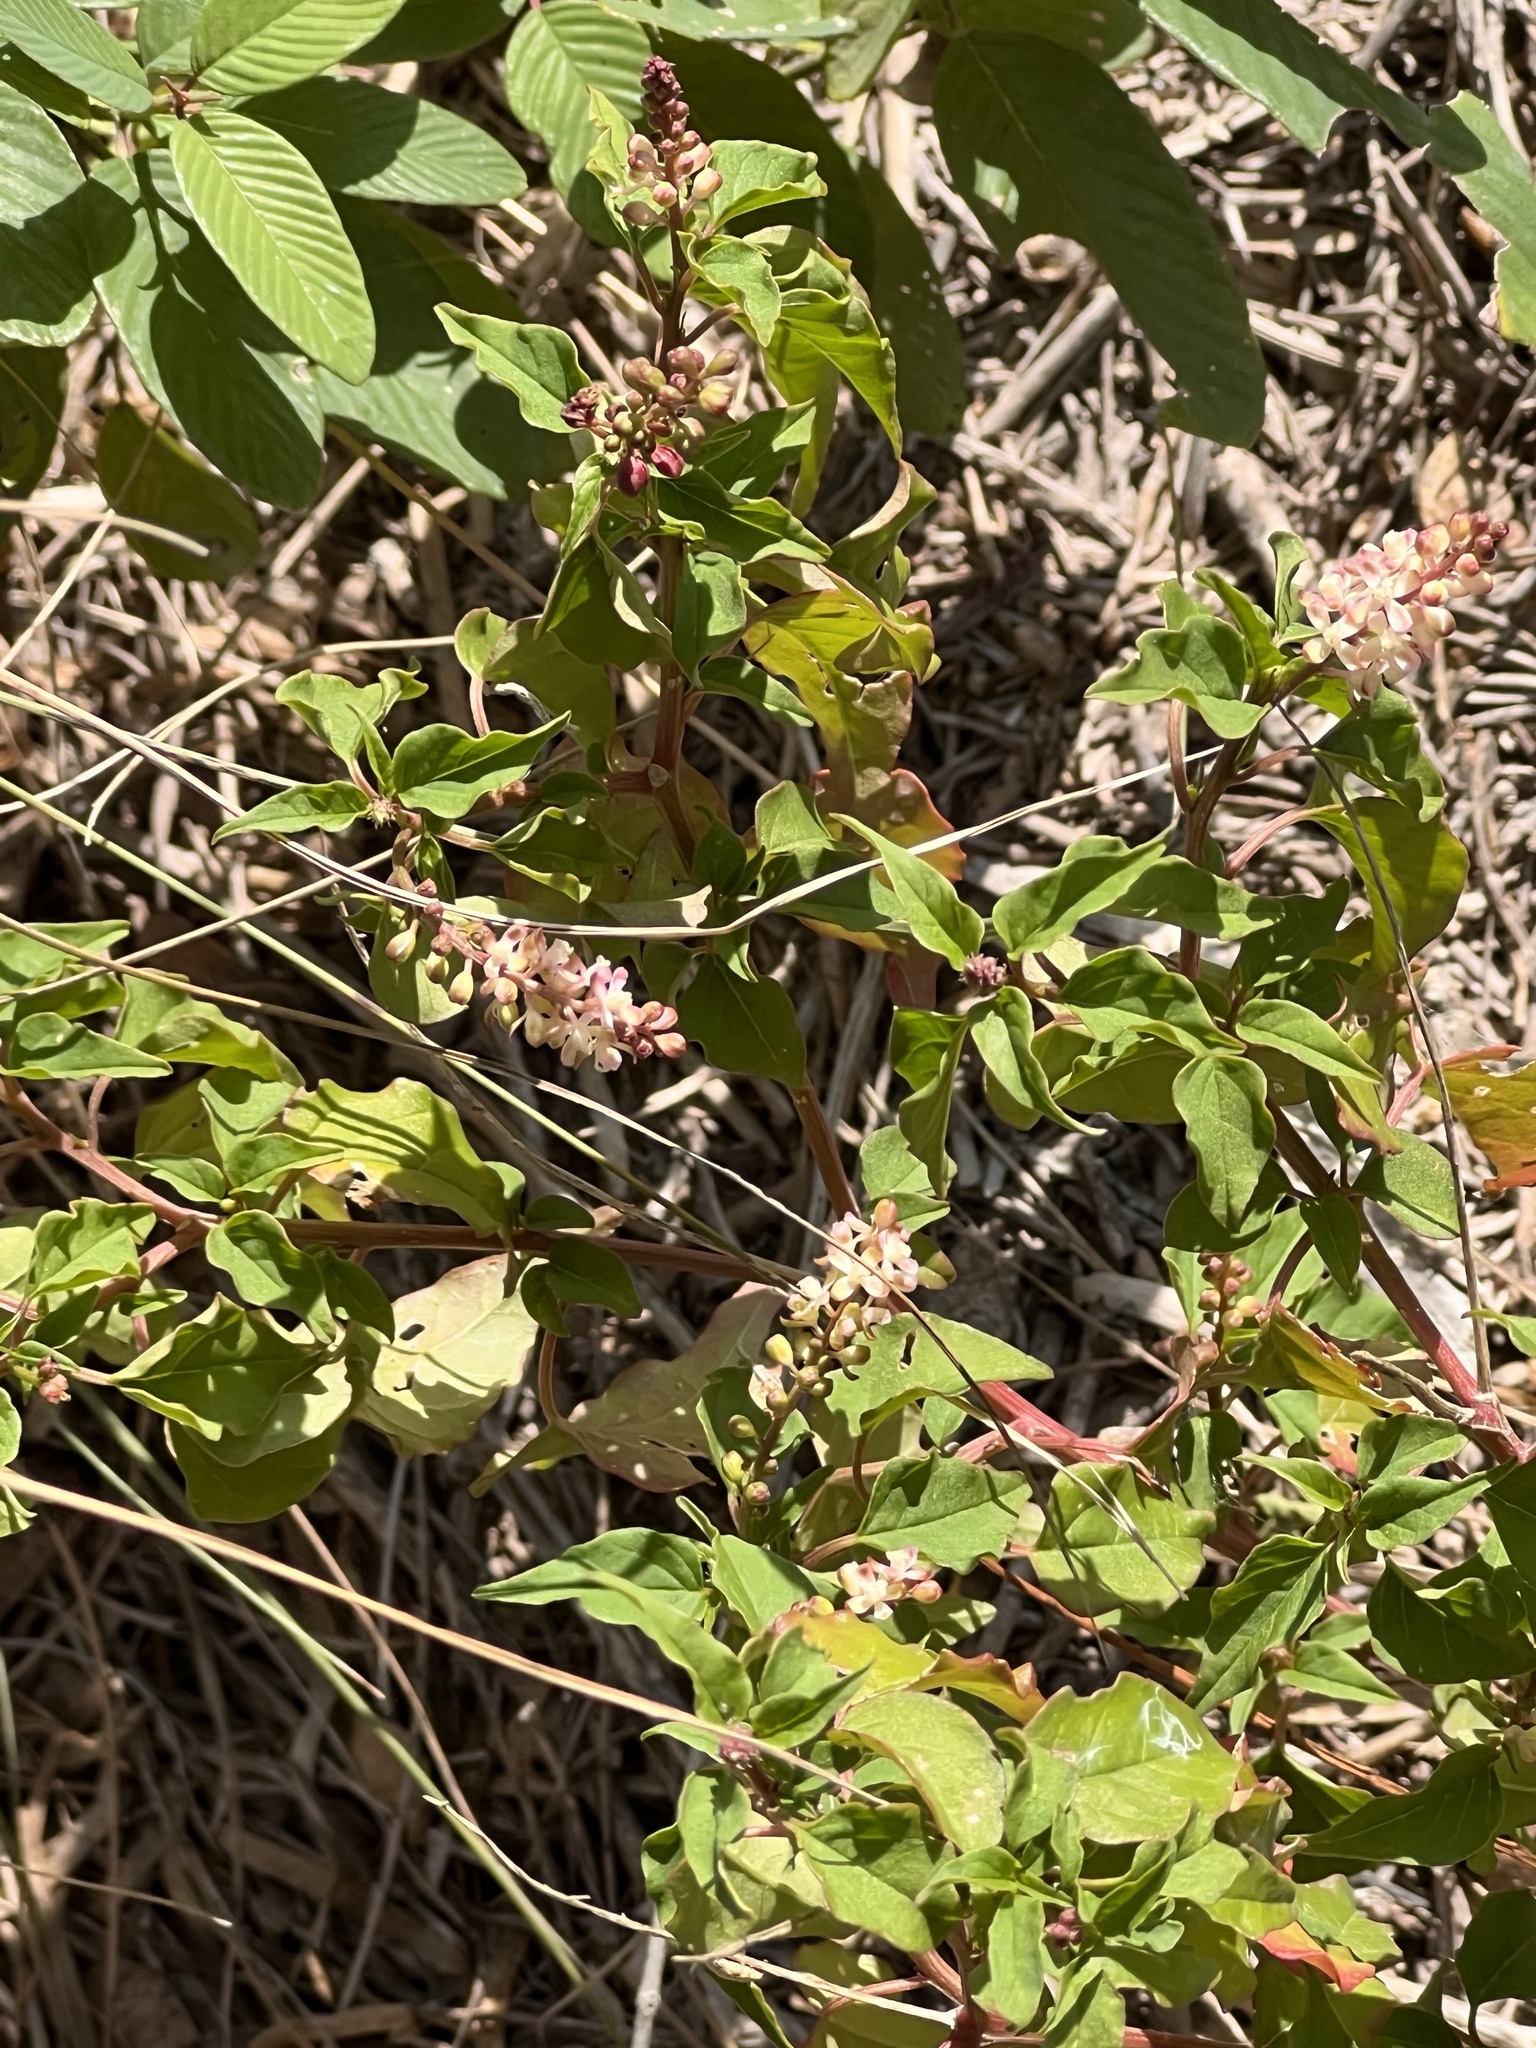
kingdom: Plantae
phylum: Tracheophyta
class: Magnoliopsida
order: Caryophyllales
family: Phytolaccaceae
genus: Rivina
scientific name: Rivina humilis
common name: Rougeplant
